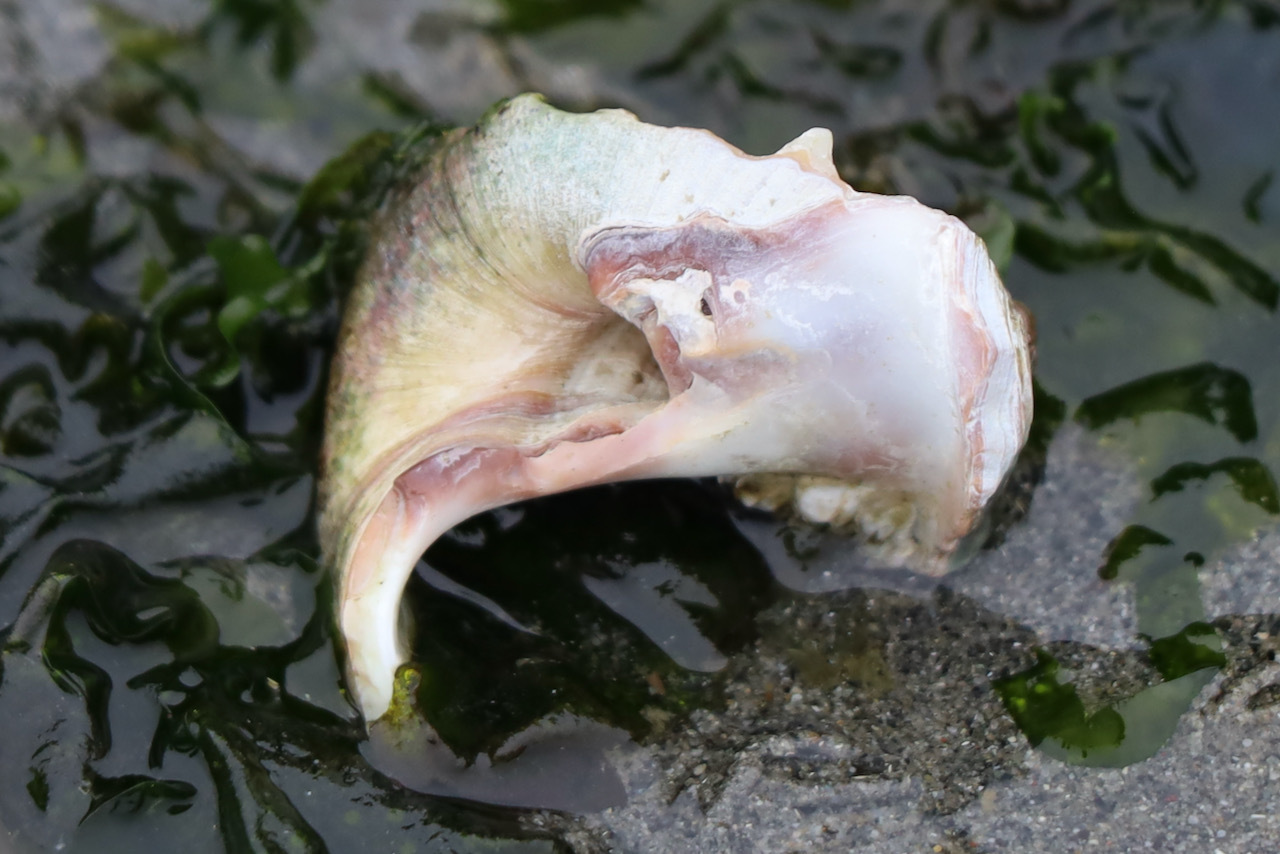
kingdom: Animalia
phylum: Mollusca
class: Gastropoda
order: Littorinimorpha
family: Naticidae
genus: Neverita
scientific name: Neverita lewisii
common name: Lewis' moonsnail
